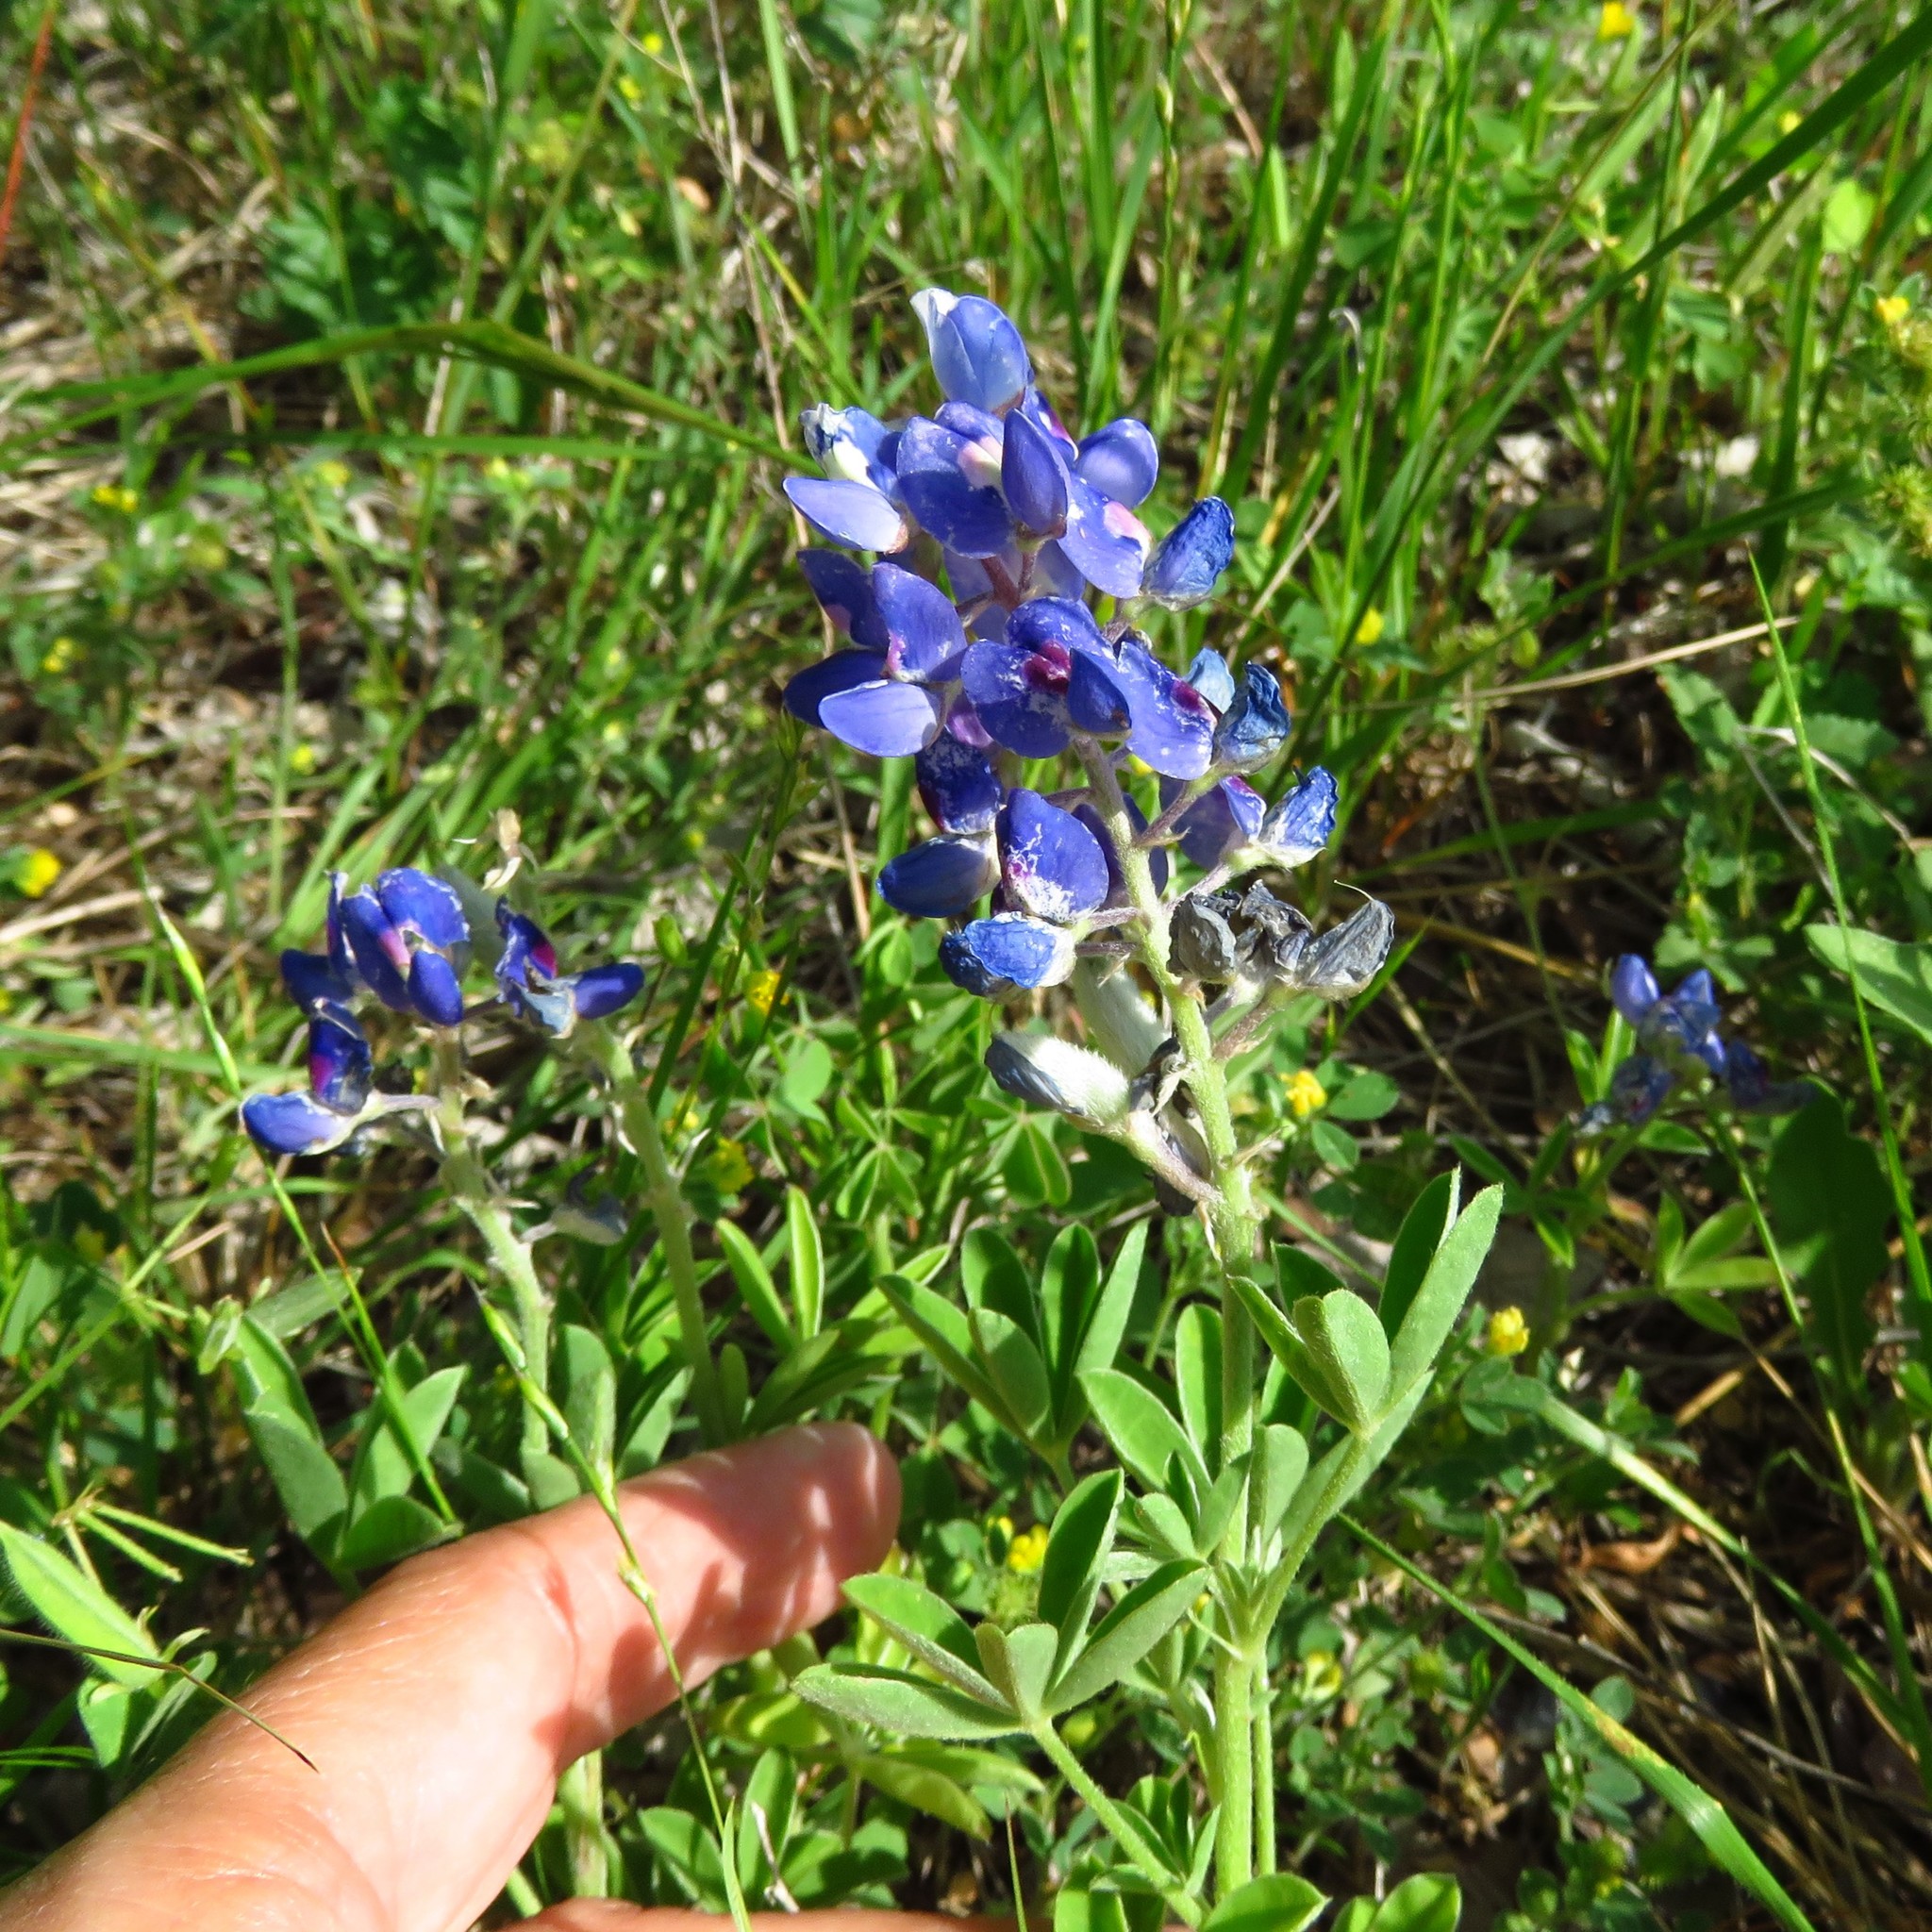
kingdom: Plantae
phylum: Tracheophyta
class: Magnoliopsida
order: Fabales
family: Fabaceae
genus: Lupinus
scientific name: Lupinus texensis
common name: Texas bluebonnet
